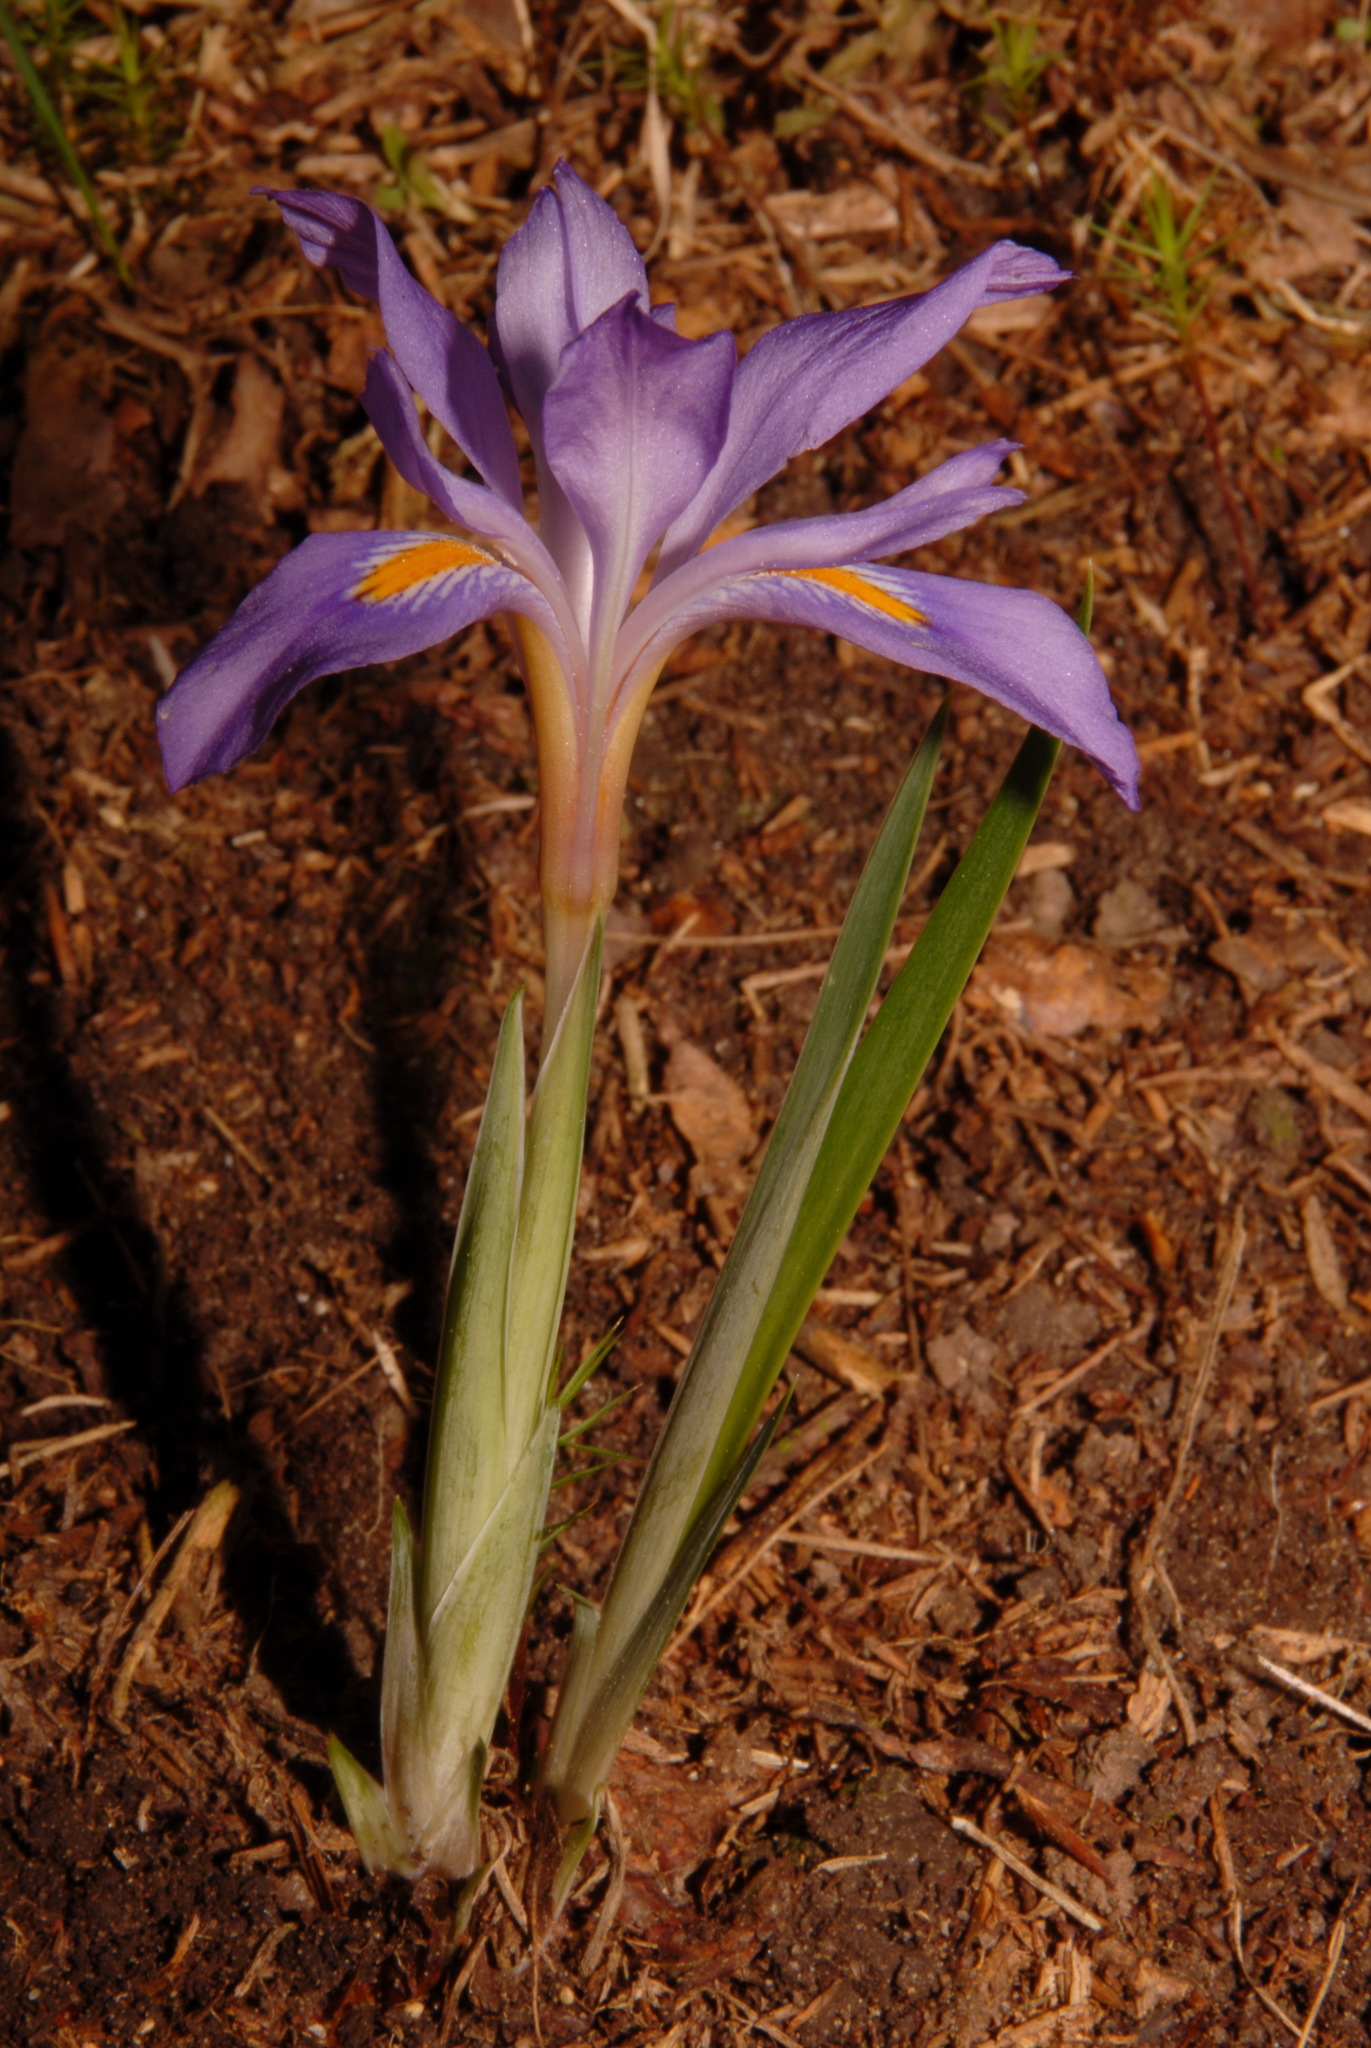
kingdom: Plantae
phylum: Tracheophyta
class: Liliopsida
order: Asparagales
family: Iridaceae
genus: Iris
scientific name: Iris verna
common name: Dwarf iris
